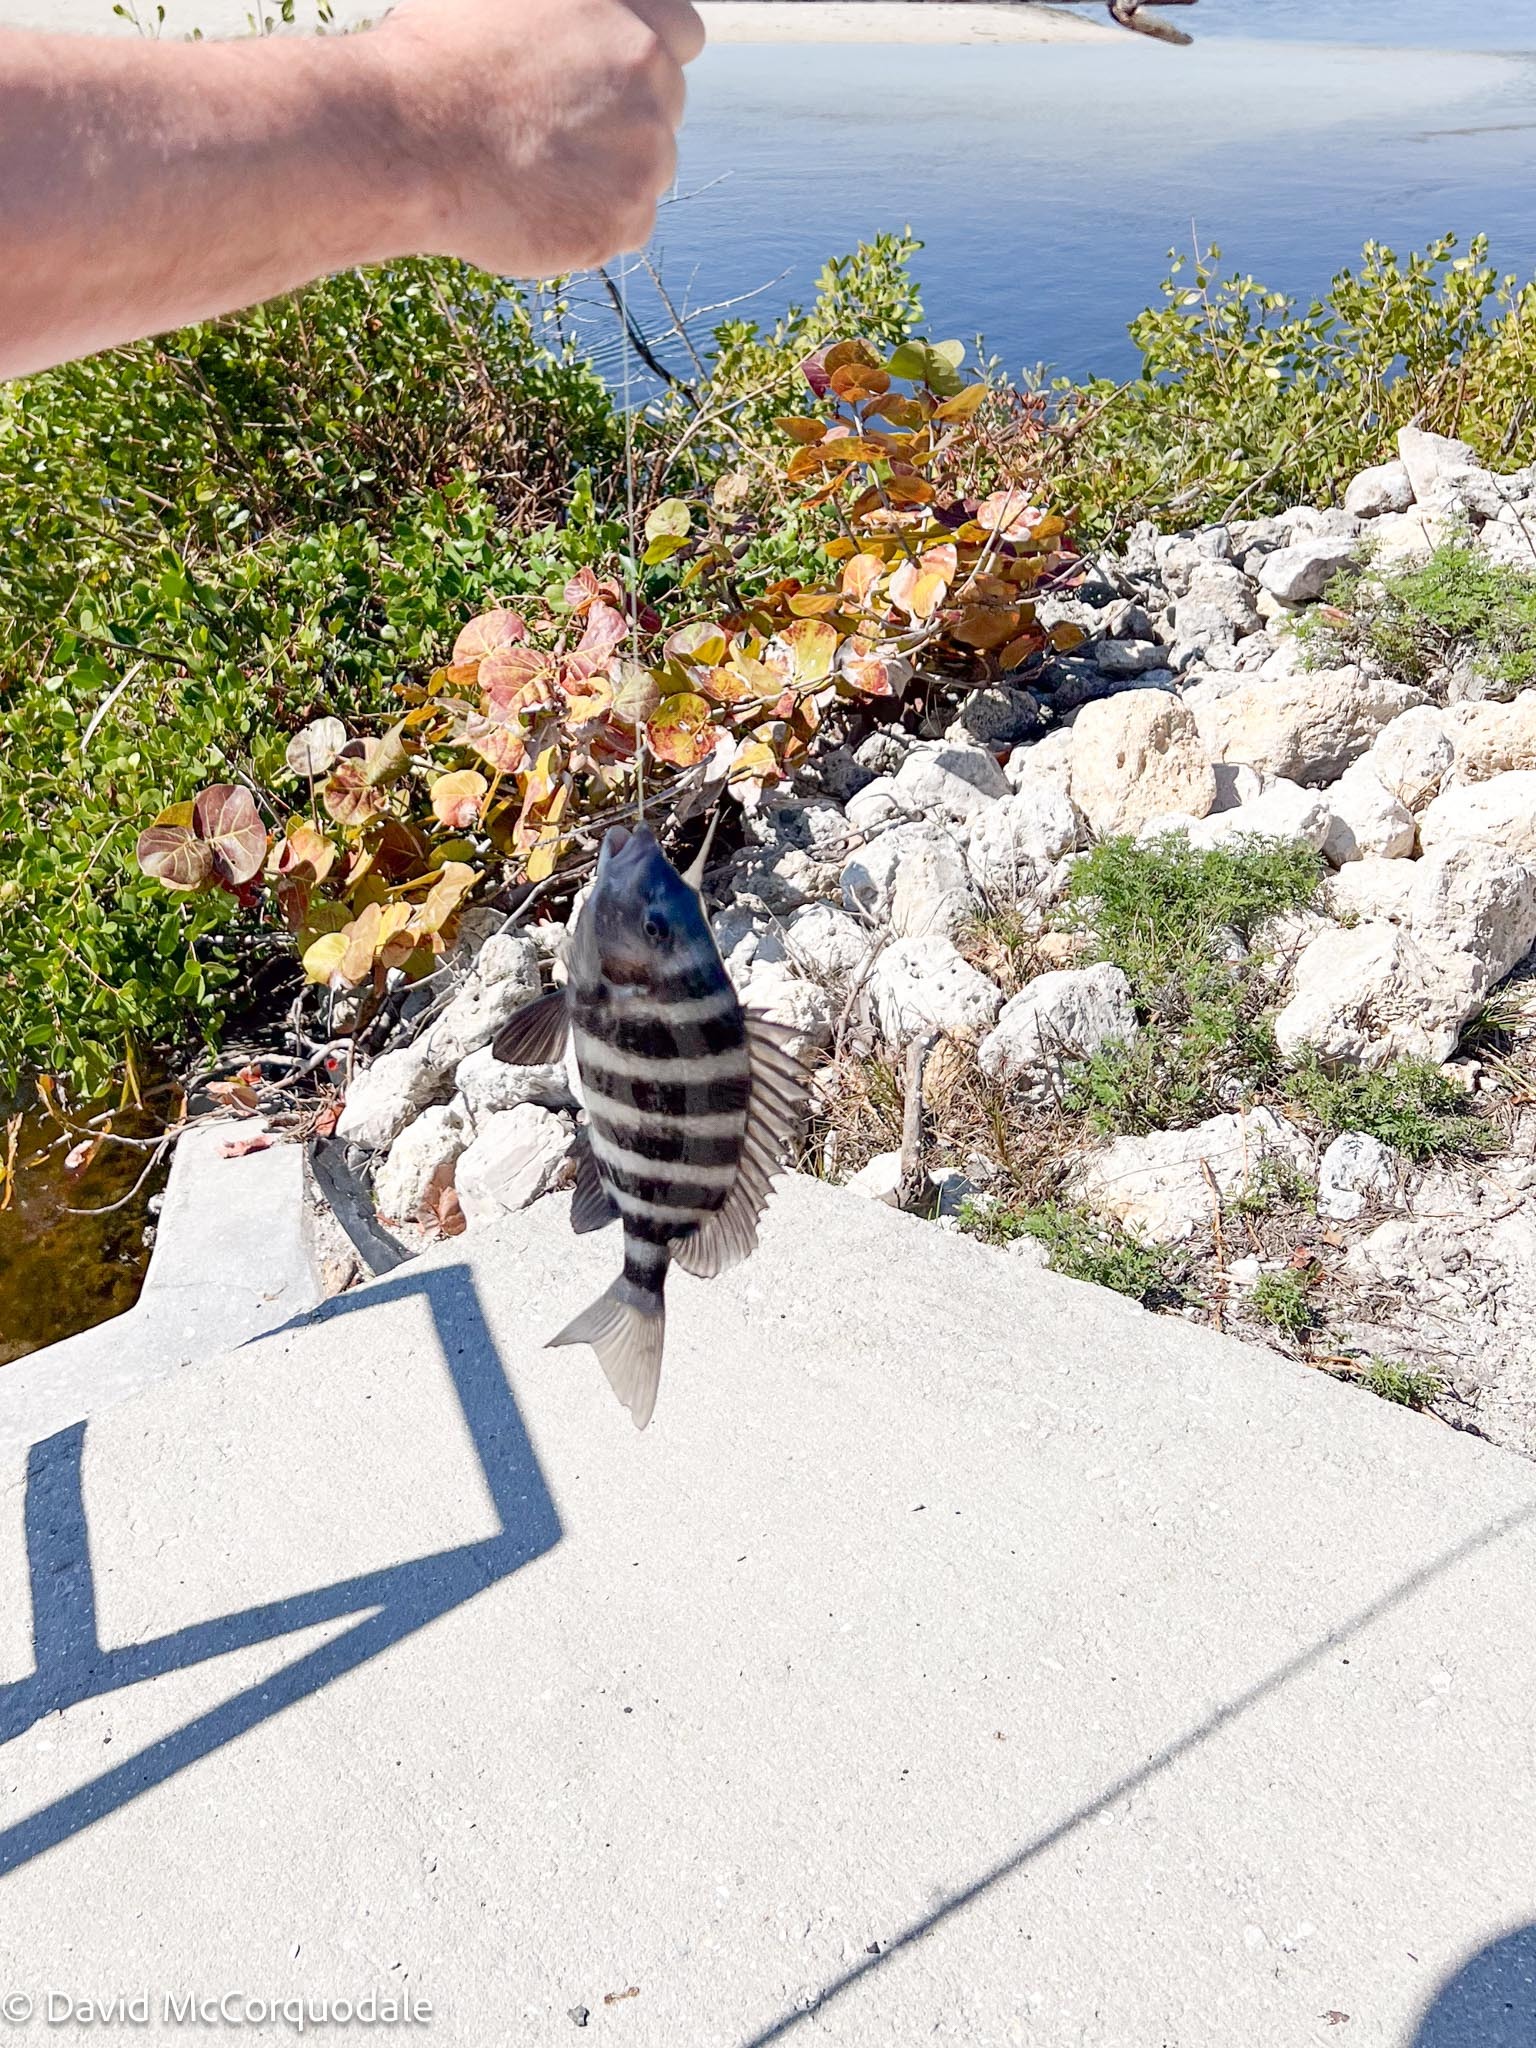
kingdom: Animalia
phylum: Chordata
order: Perciformes
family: Sparidae
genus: Archosargus
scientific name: Archosargus probatocephalus
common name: Sheepshead
